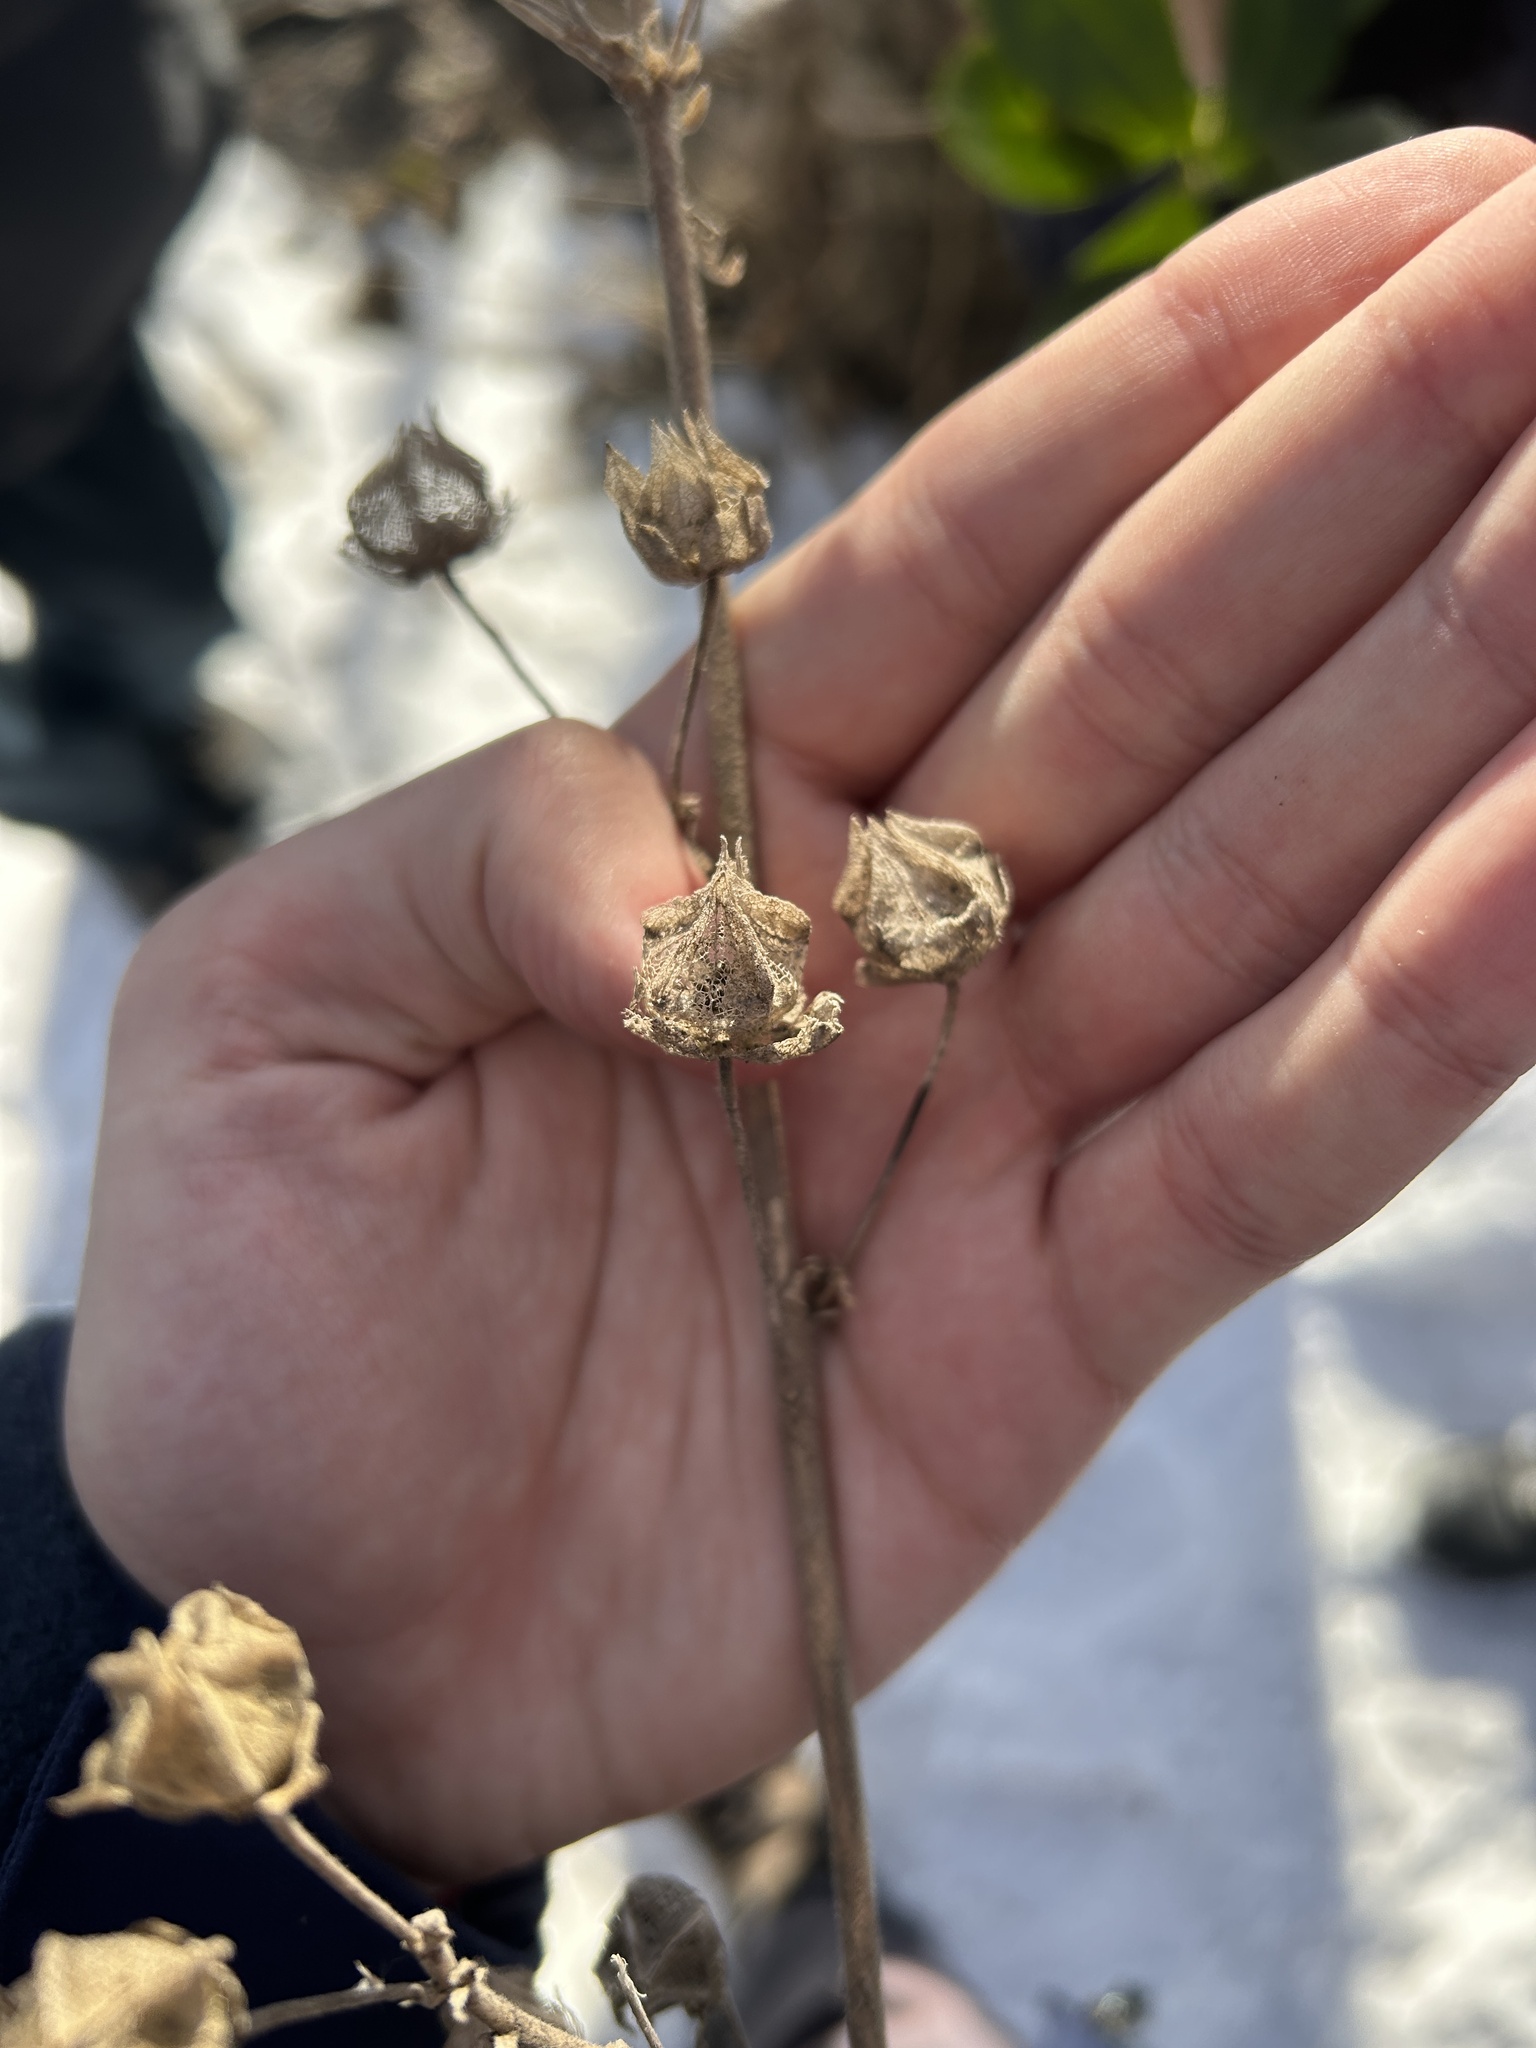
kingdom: Plantae
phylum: Tracheophyta
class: Magnoliopsida
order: Malvales
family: Malvaceae
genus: Malva
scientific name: Malva thuringiaca
